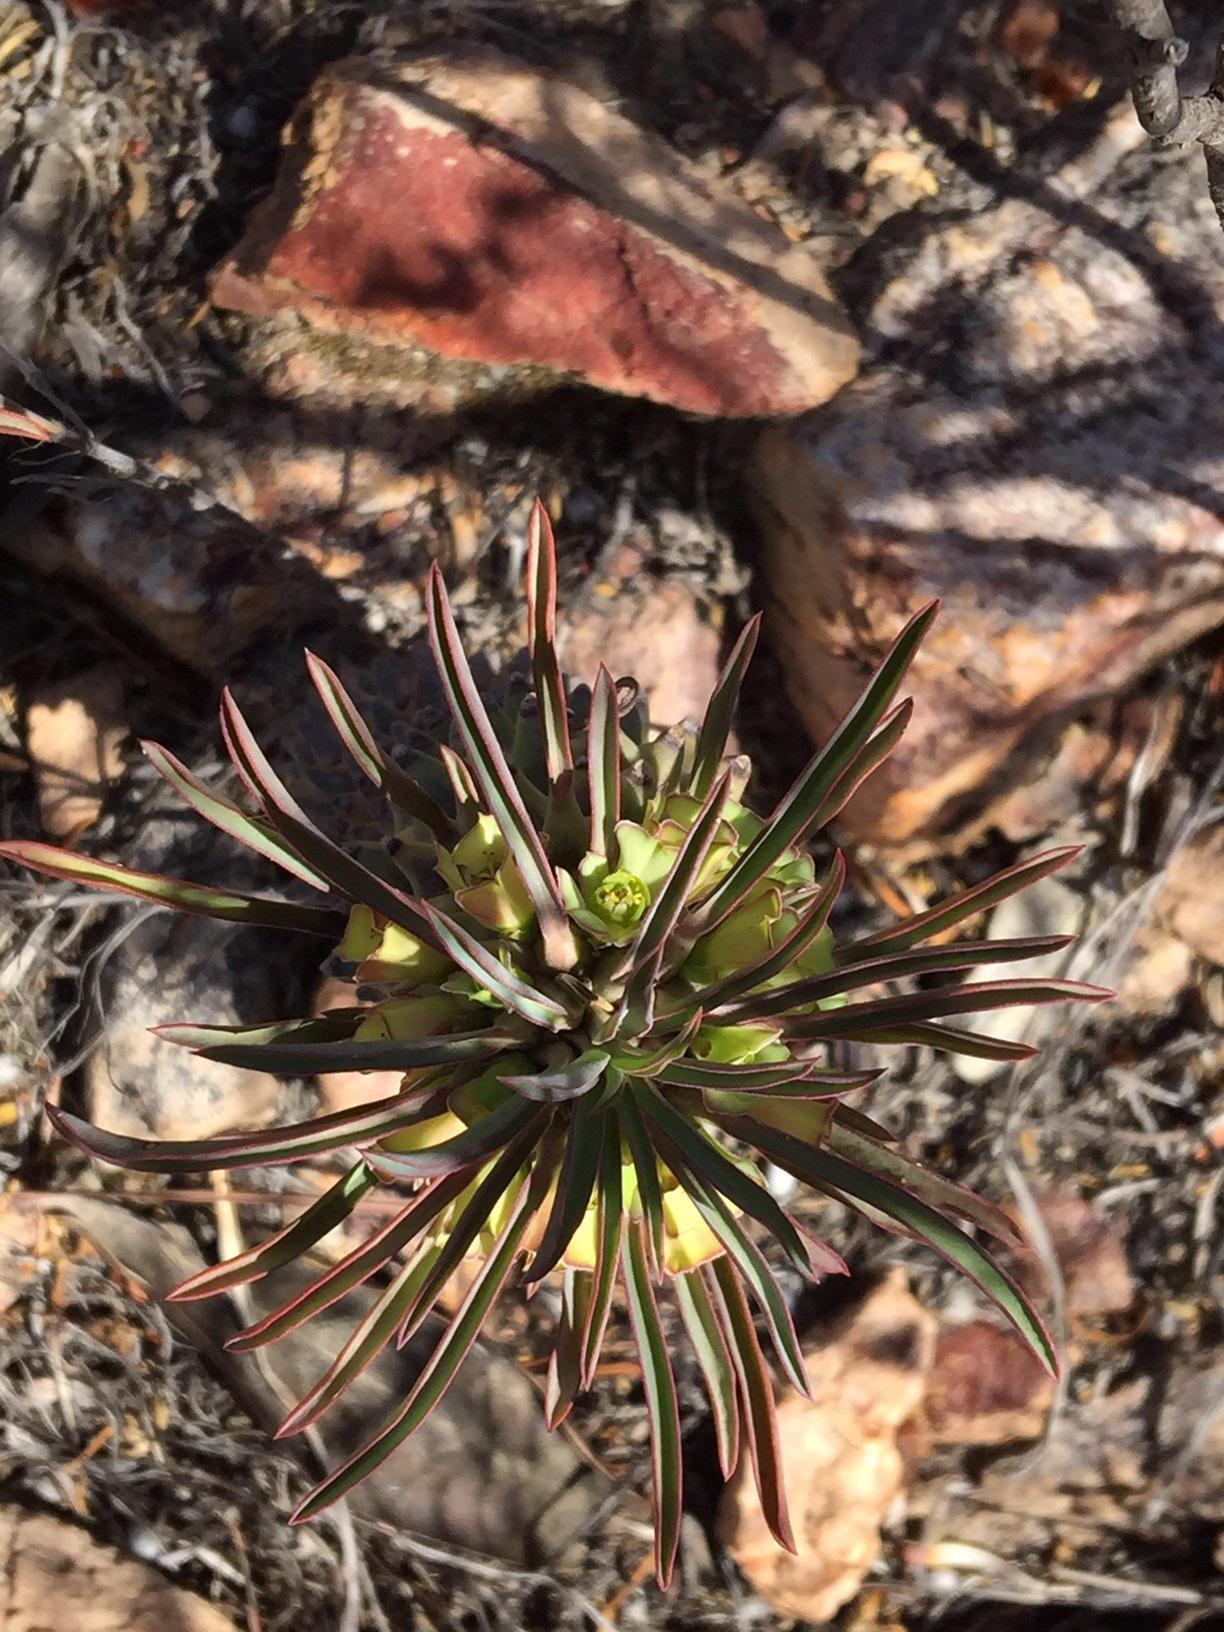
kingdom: Plantae
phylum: Tracheophyta
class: Magnoliopsida
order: Malpighiales
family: Euphorbiaceae
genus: Euphorbia
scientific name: Euphorbia clandestina
